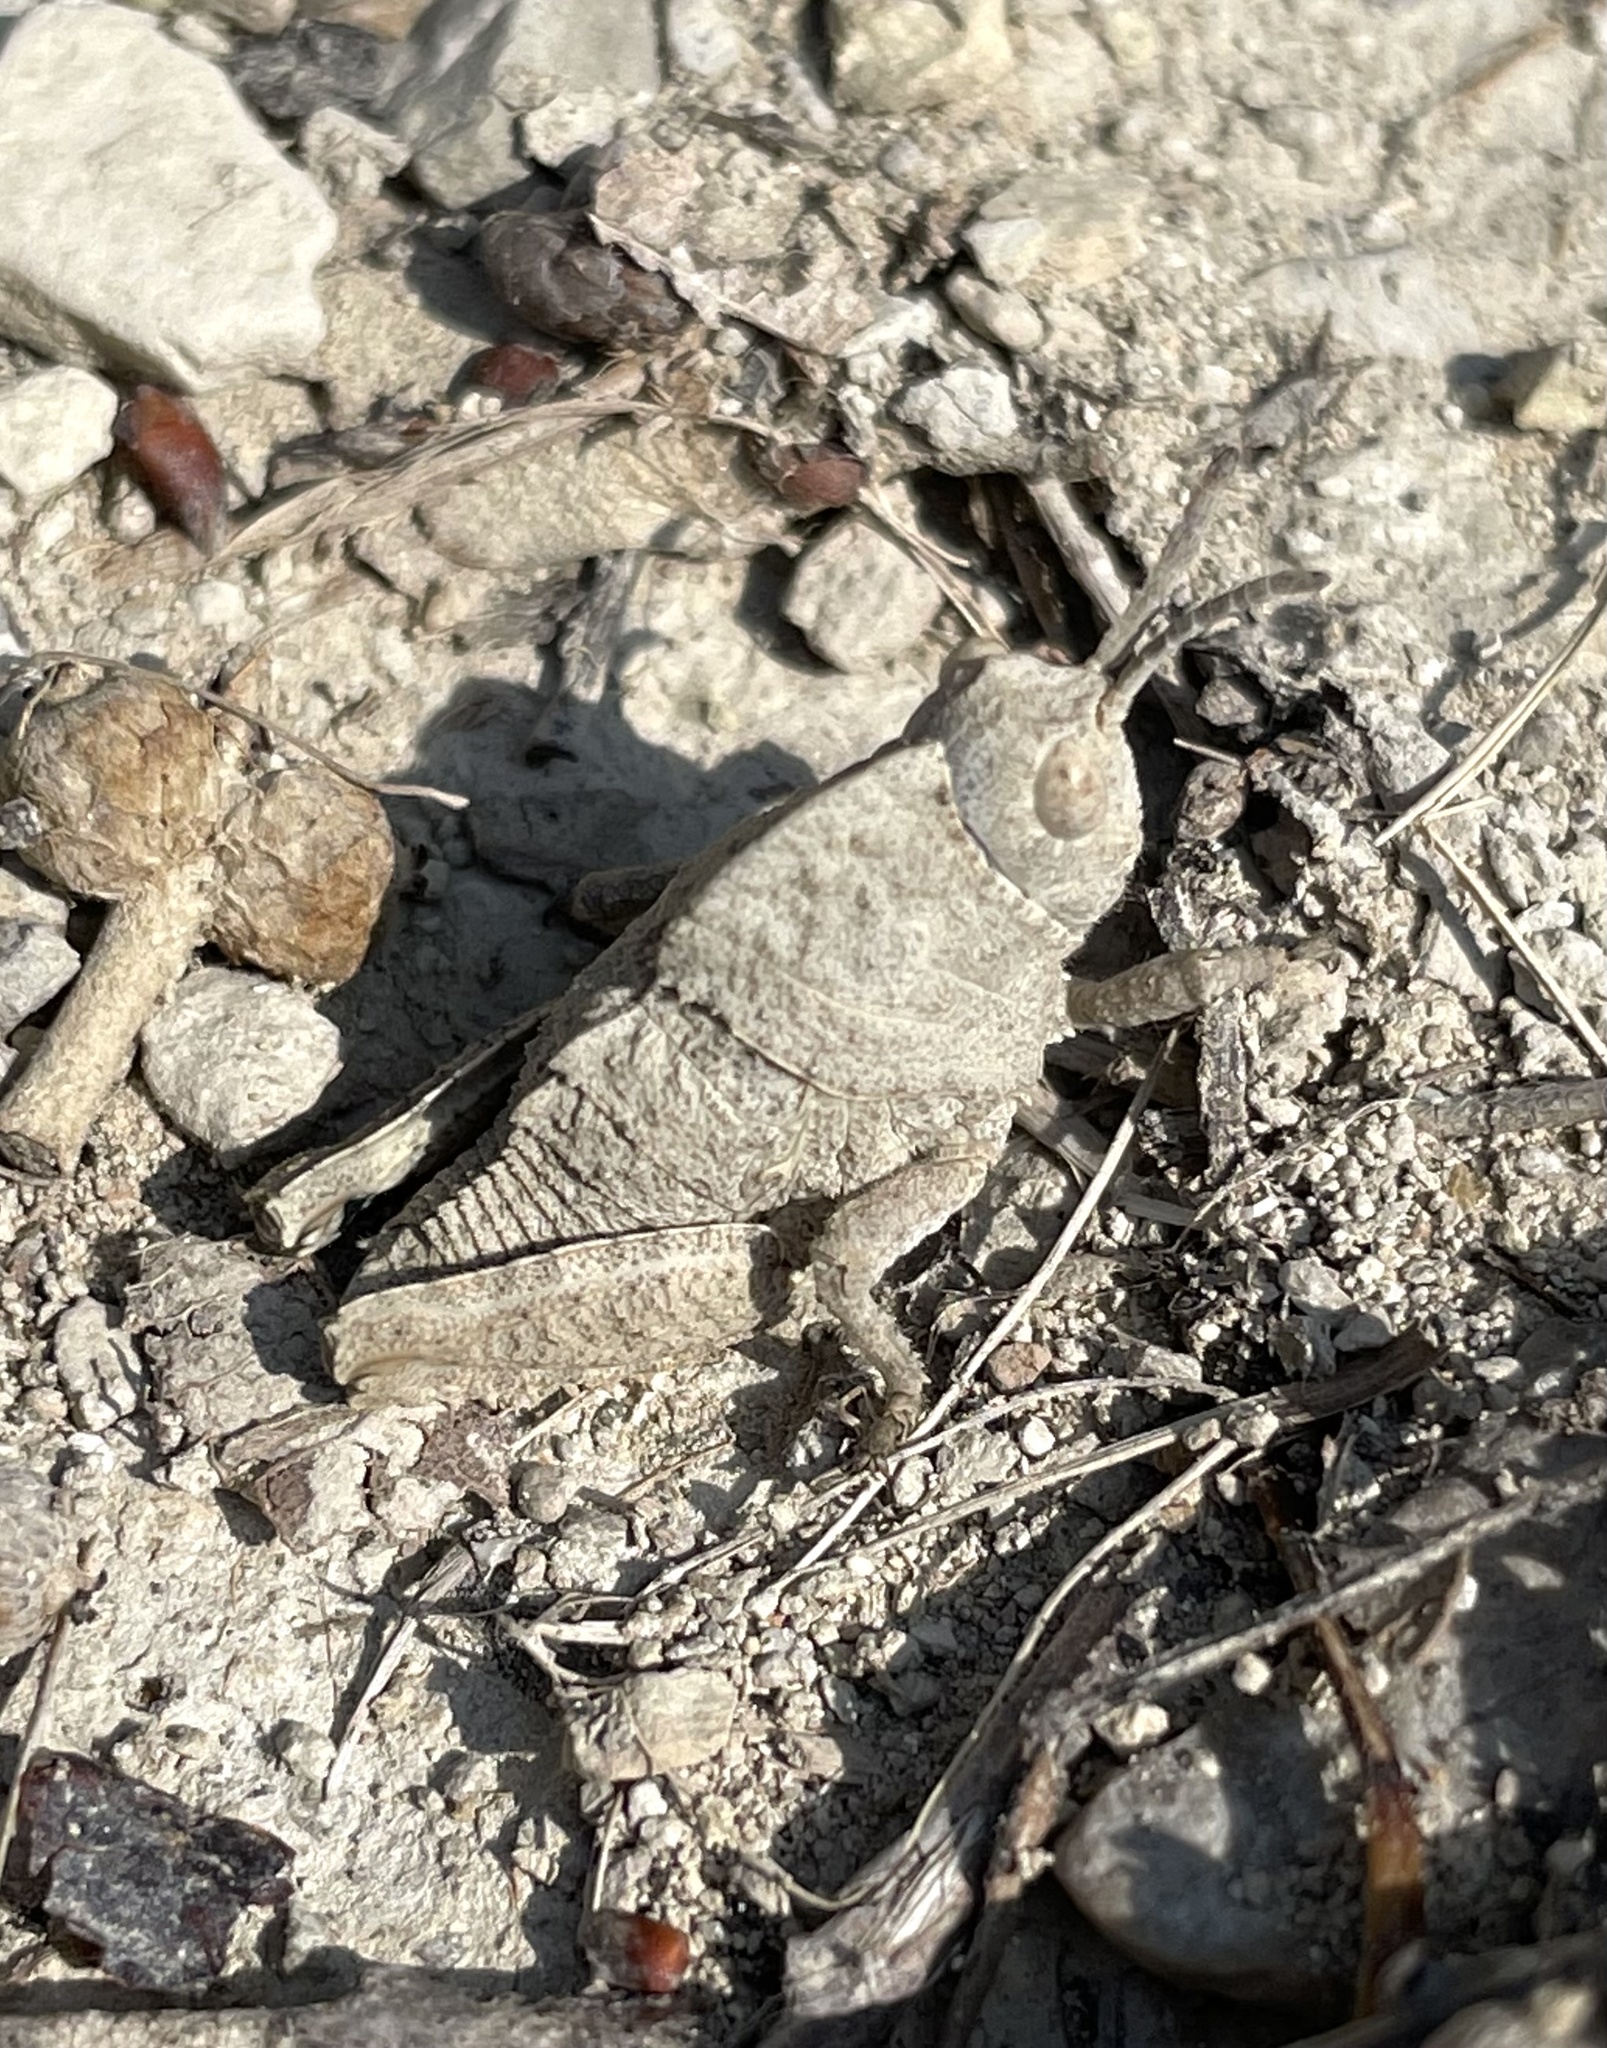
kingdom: Animalia
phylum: Arthropoda
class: Insecta
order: Orthoptera
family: Pamphagidae
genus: Ocnerodes
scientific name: Ocnerodes brunnerii
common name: Brunner's stone grasshopper
